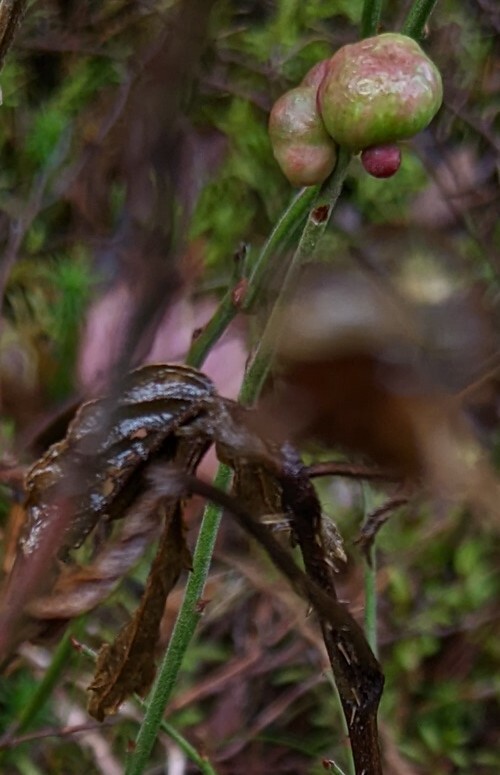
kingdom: Animalia
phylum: Arthropoda
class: Insecta
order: Hymenoptera
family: Pteromalidae
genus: Hemadas
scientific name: Hemadas nubilipennis
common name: Blueberry stem gall wasp
